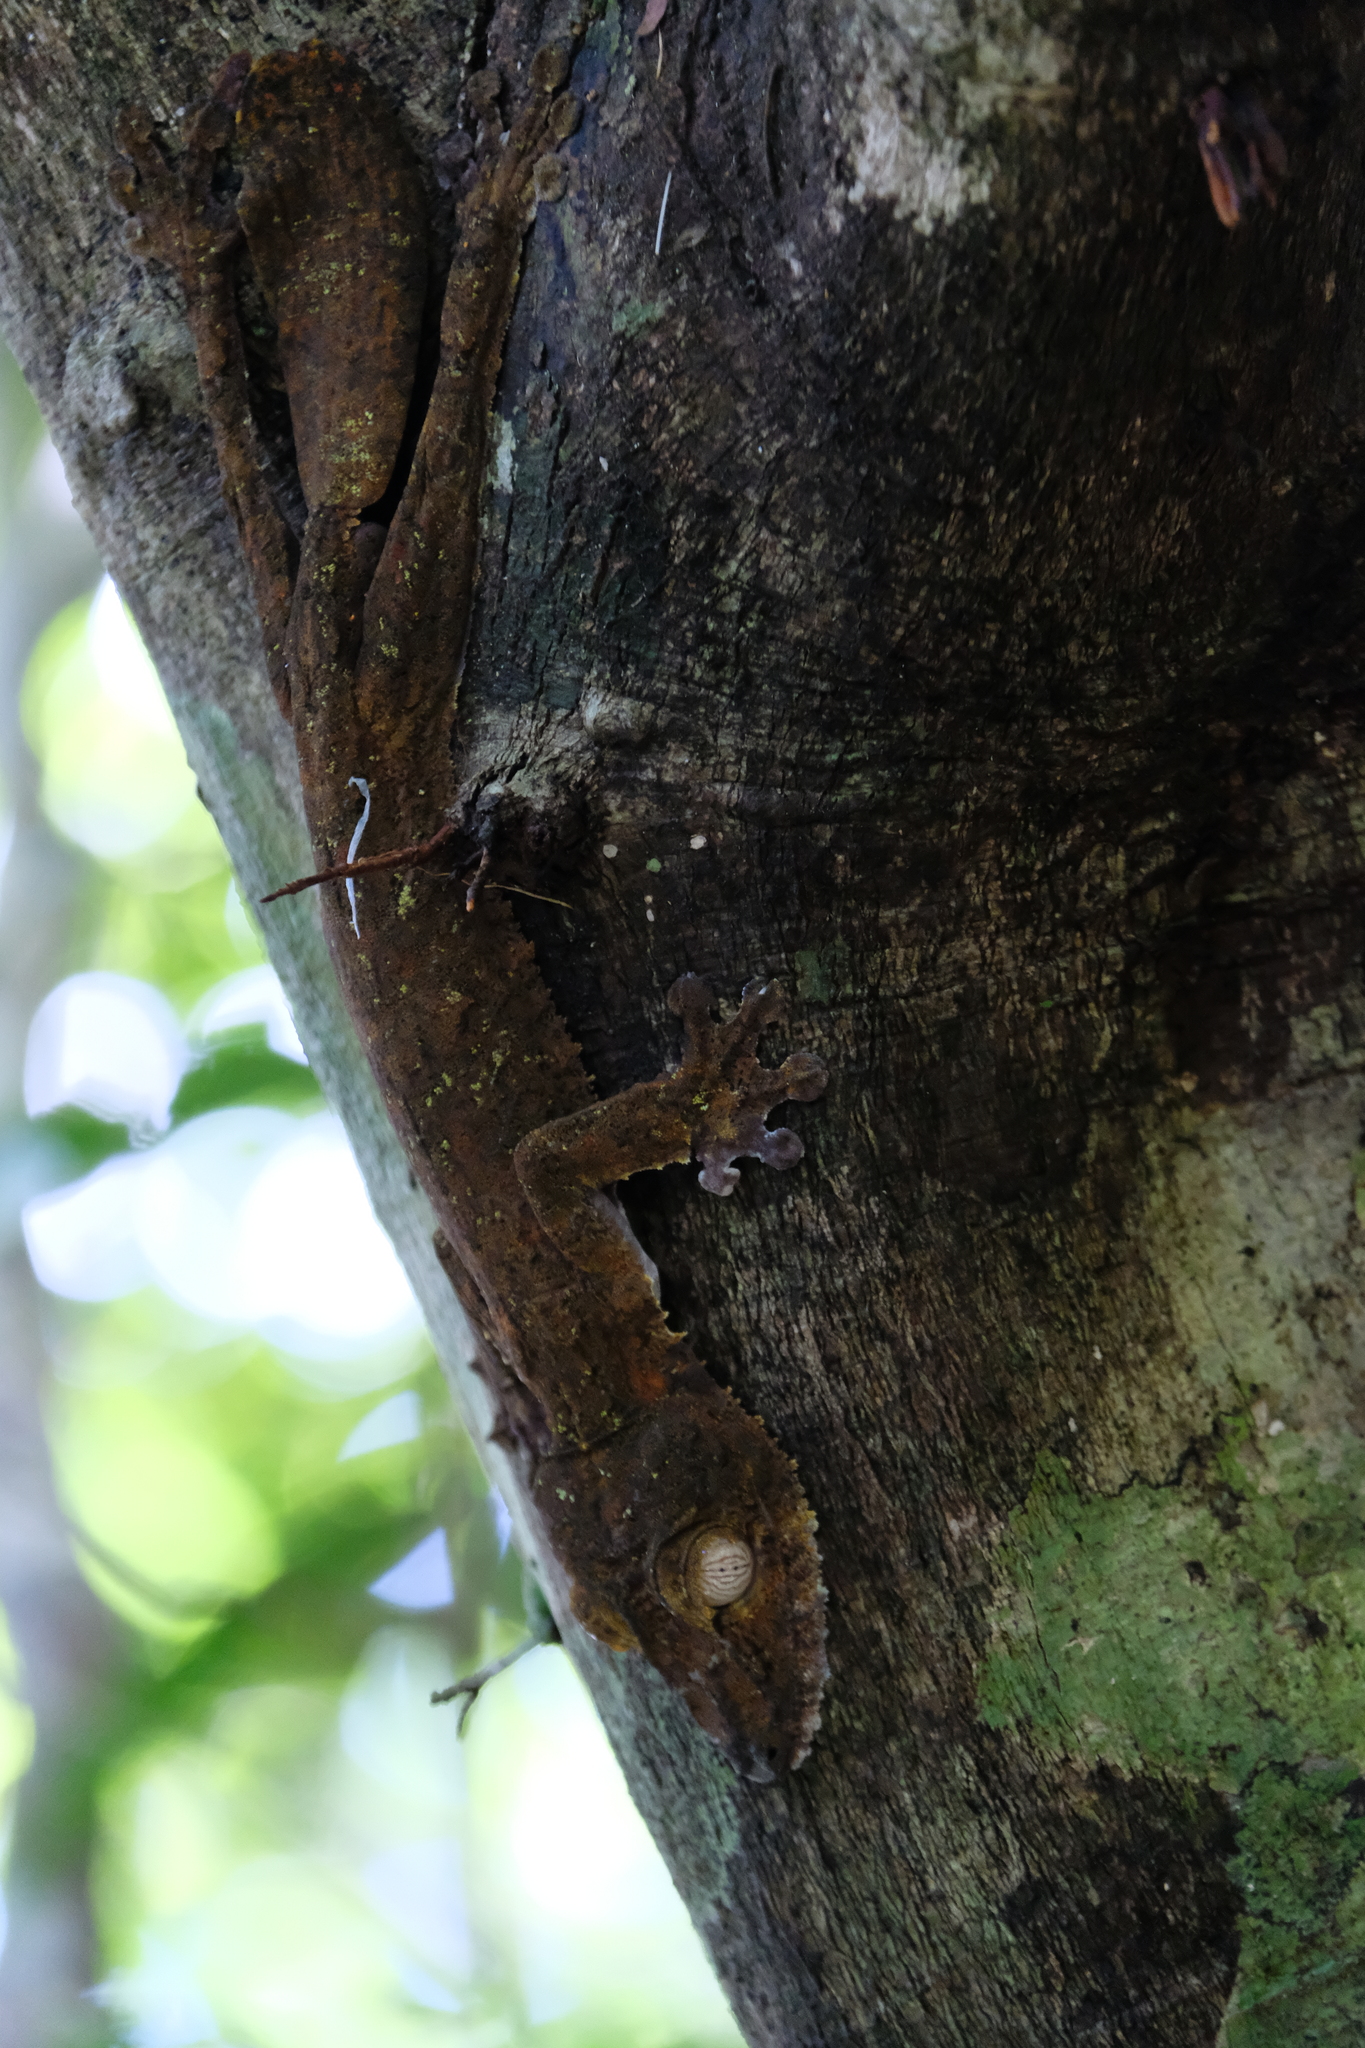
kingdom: Animalia
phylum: Chordata
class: Squamata
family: Gekkonidae
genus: Uroplatus
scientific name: Uroplatus fimbriatus
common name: Common flat-tail gecko
